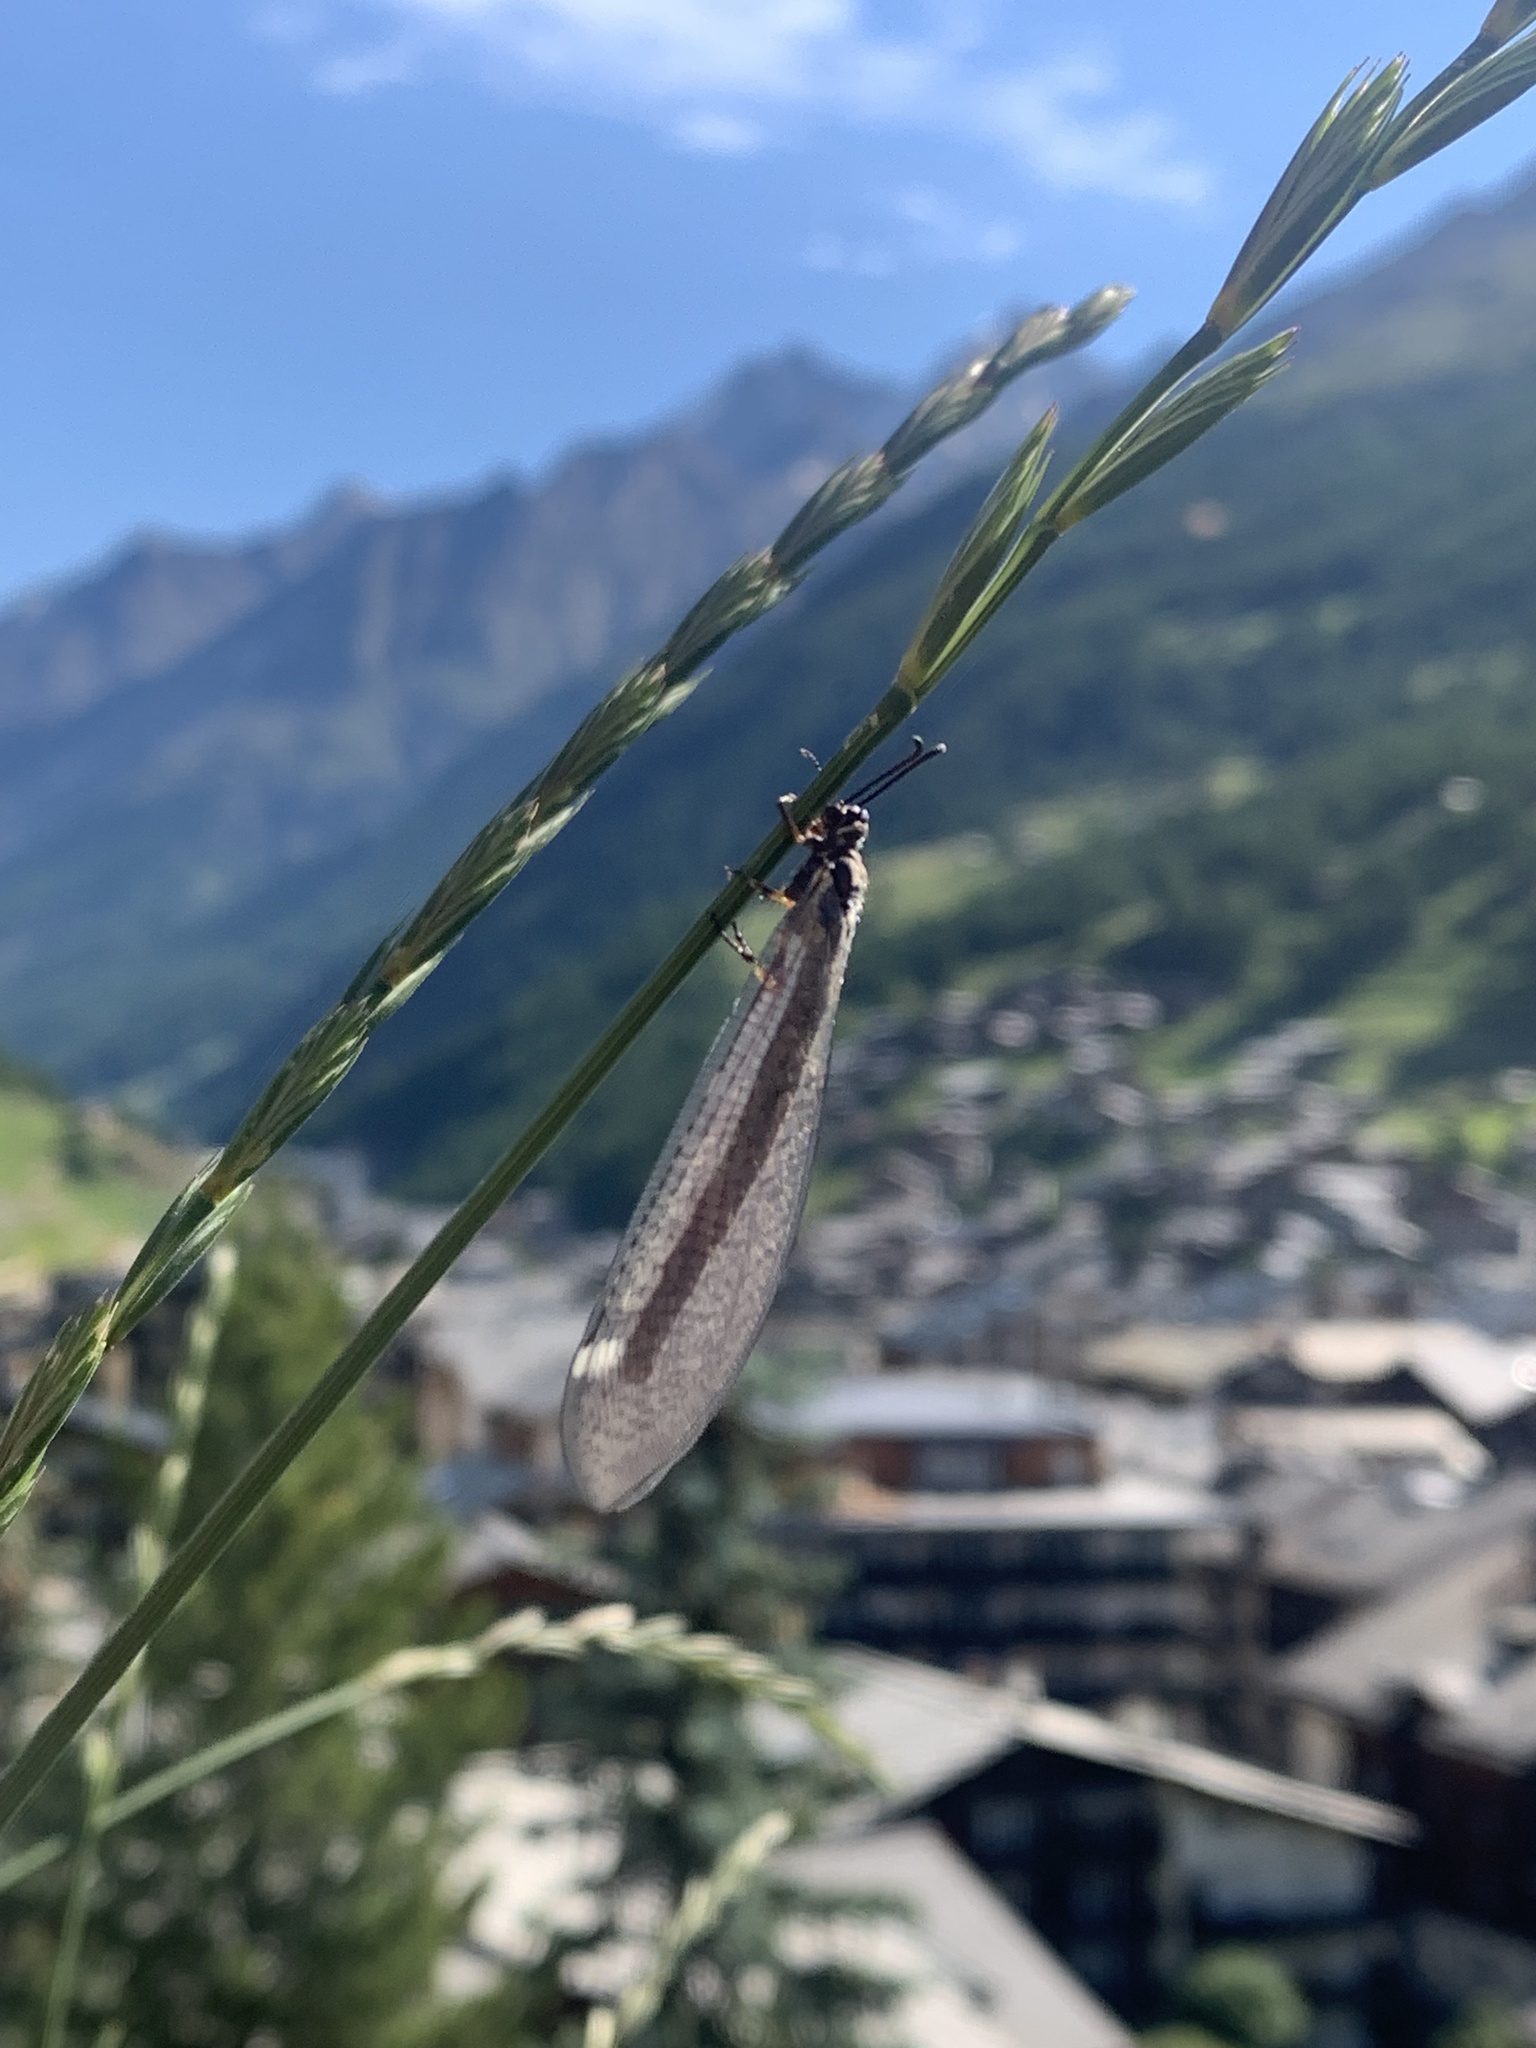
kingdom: Animalia
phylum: Arthropoda
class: Insecta
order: Neuroptera
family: Myrmeleontidae
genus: Myrmeleon
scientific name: Myrmeleon formicarius
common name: Ant-lion
